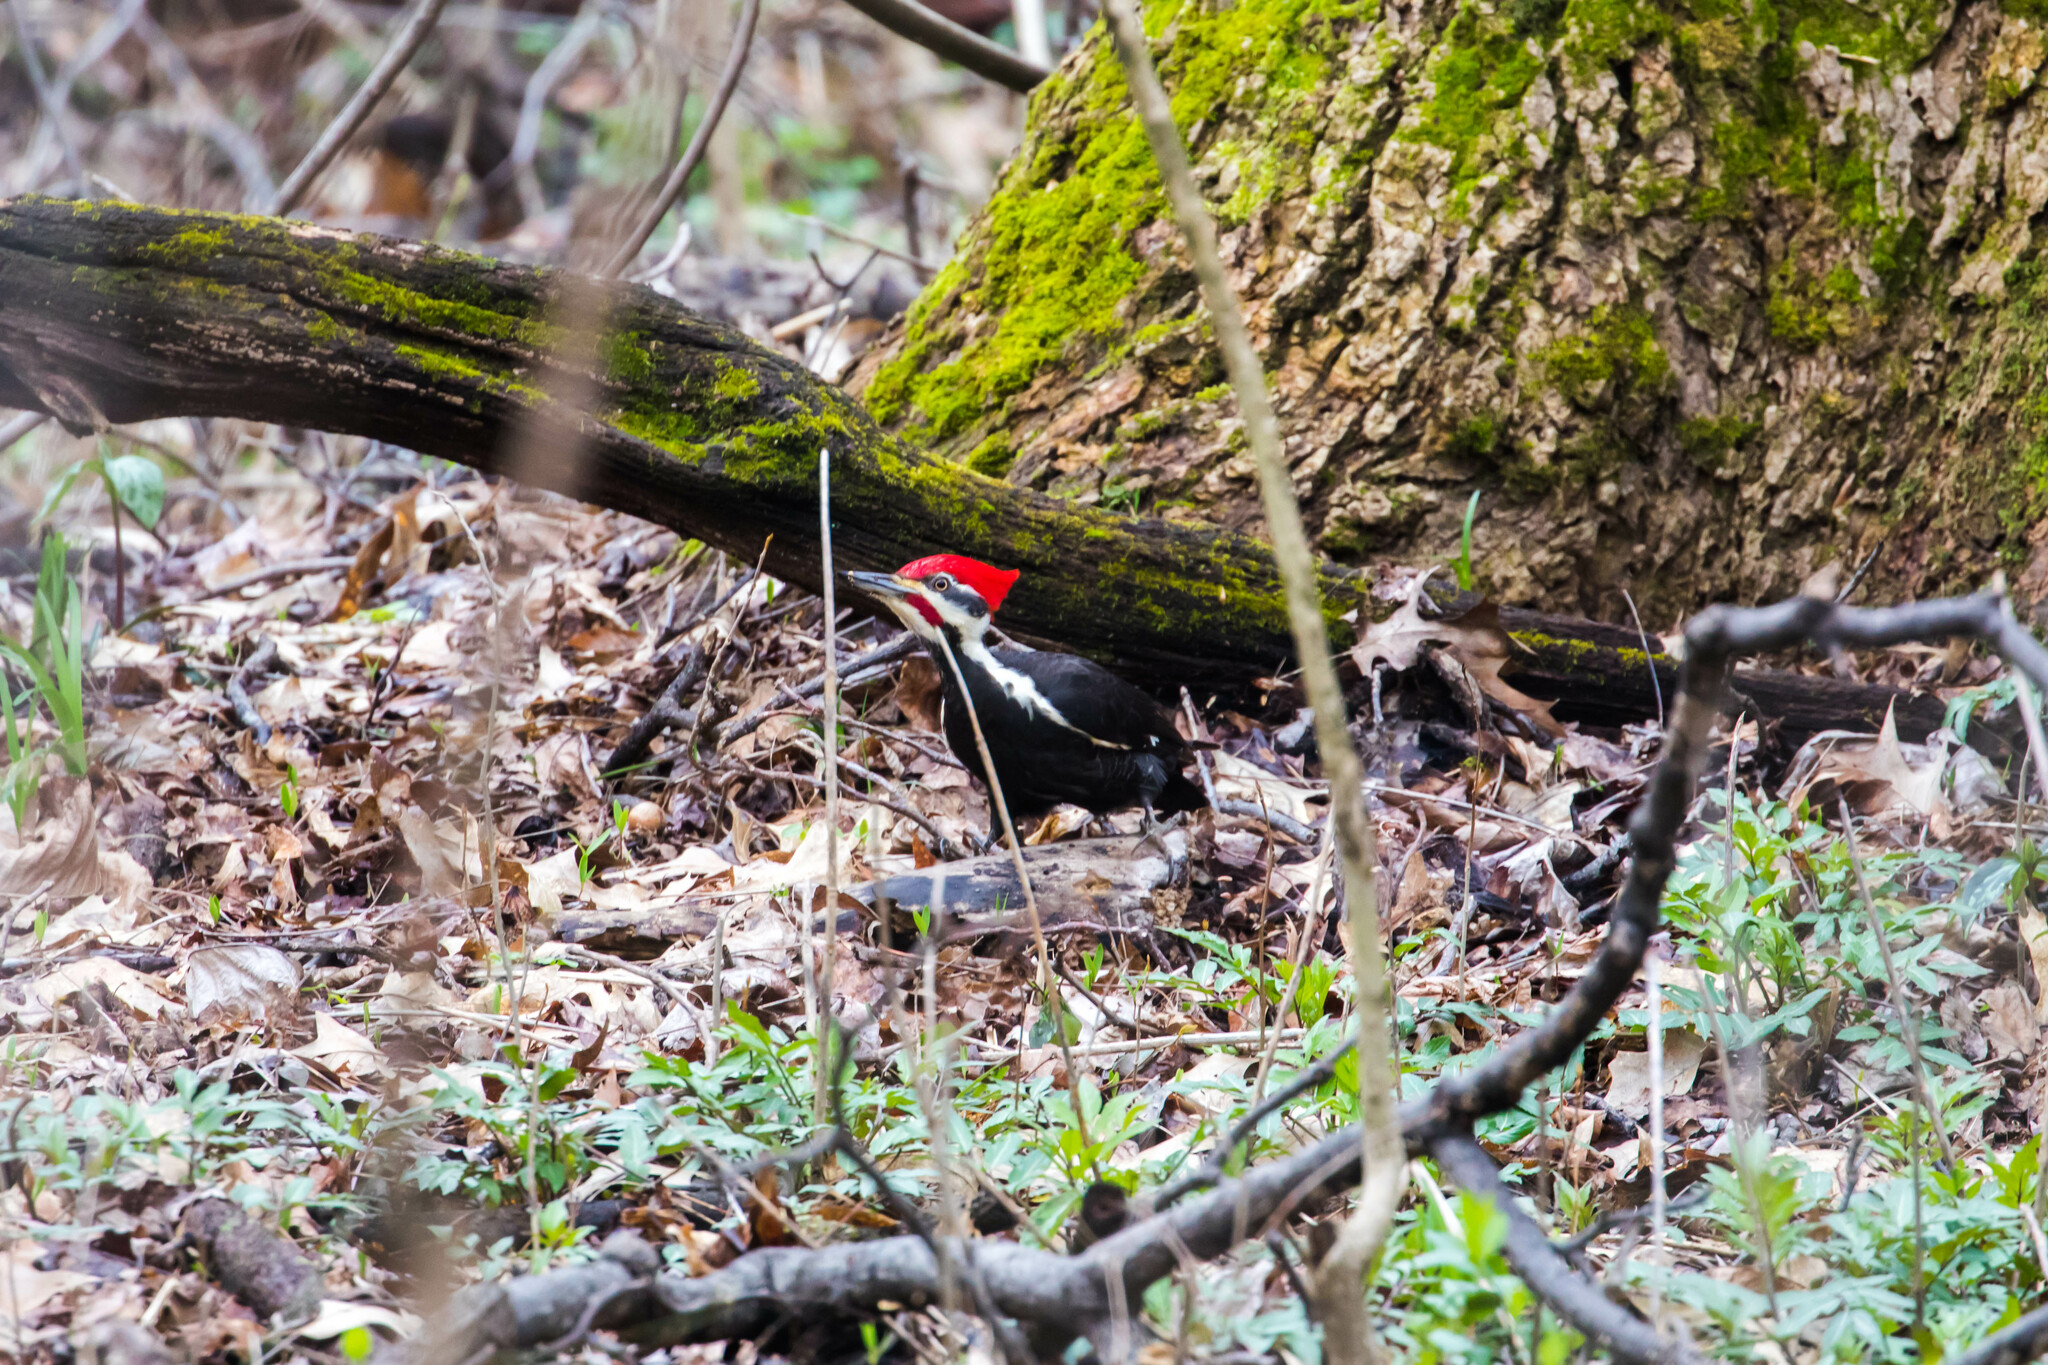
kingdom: Animalia
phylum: Chordata
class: Aves
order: Piciformes
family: Picidae
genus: Dryocopus
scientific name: Dryocopus pileatus
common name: Pileated woodpecker
